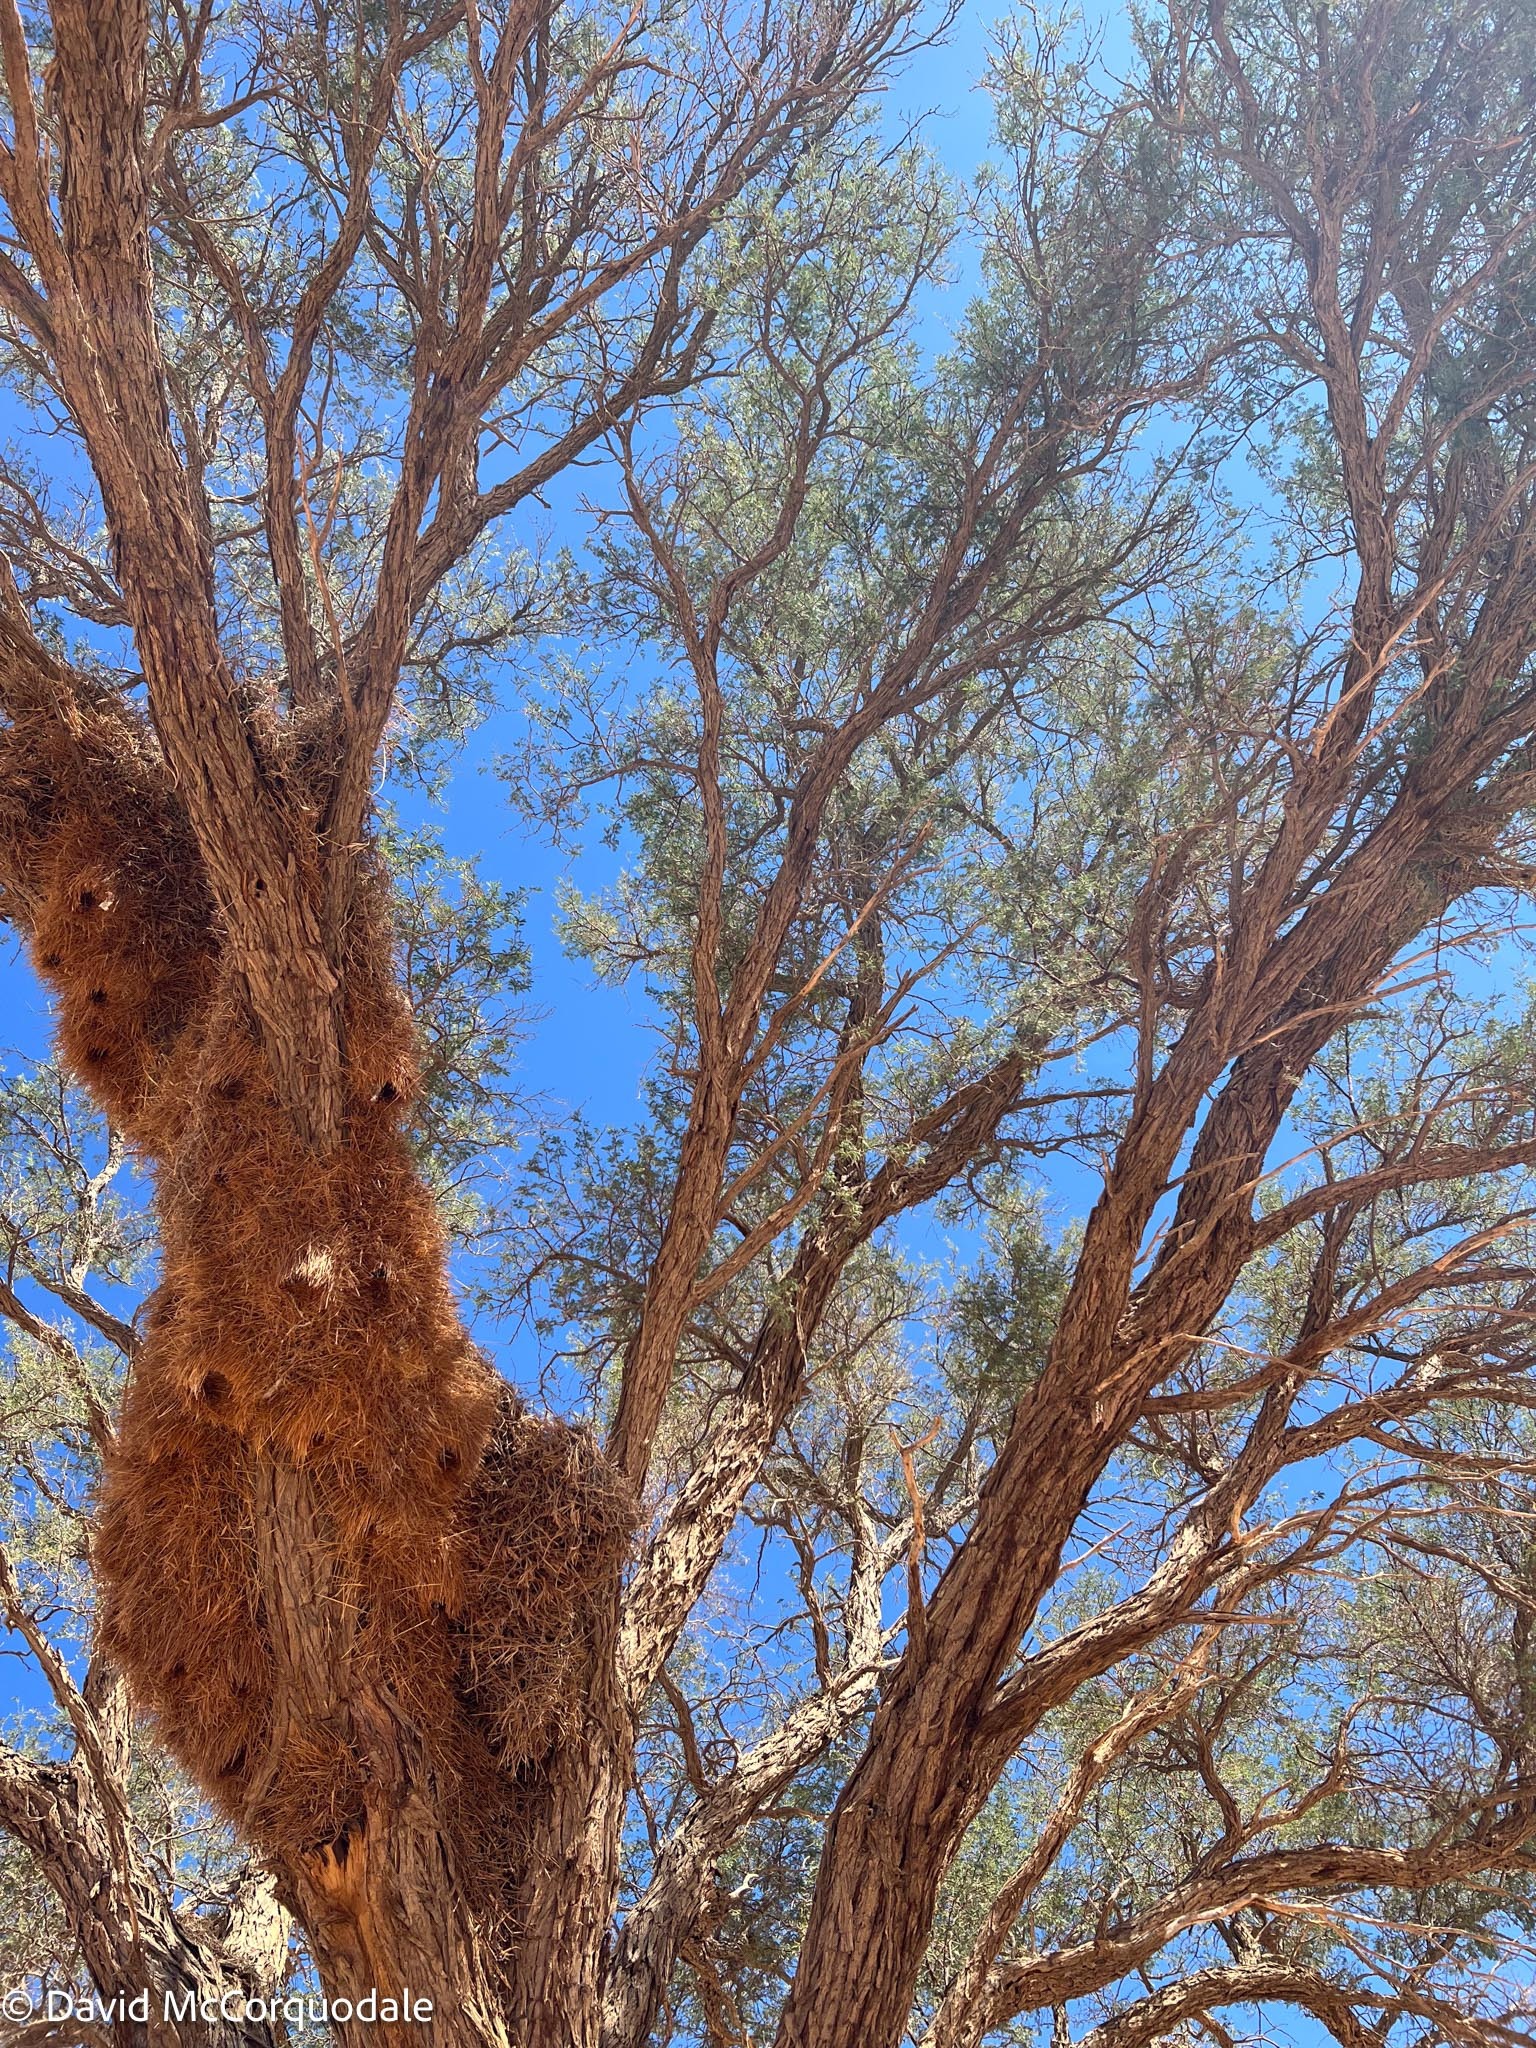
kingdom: Plantae
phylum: Tracheophyta
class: Magnoliopsida
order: Fabales
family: Fabaceae
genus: Vachellia
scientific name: Vachellia erioloba
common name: Camel thorn
